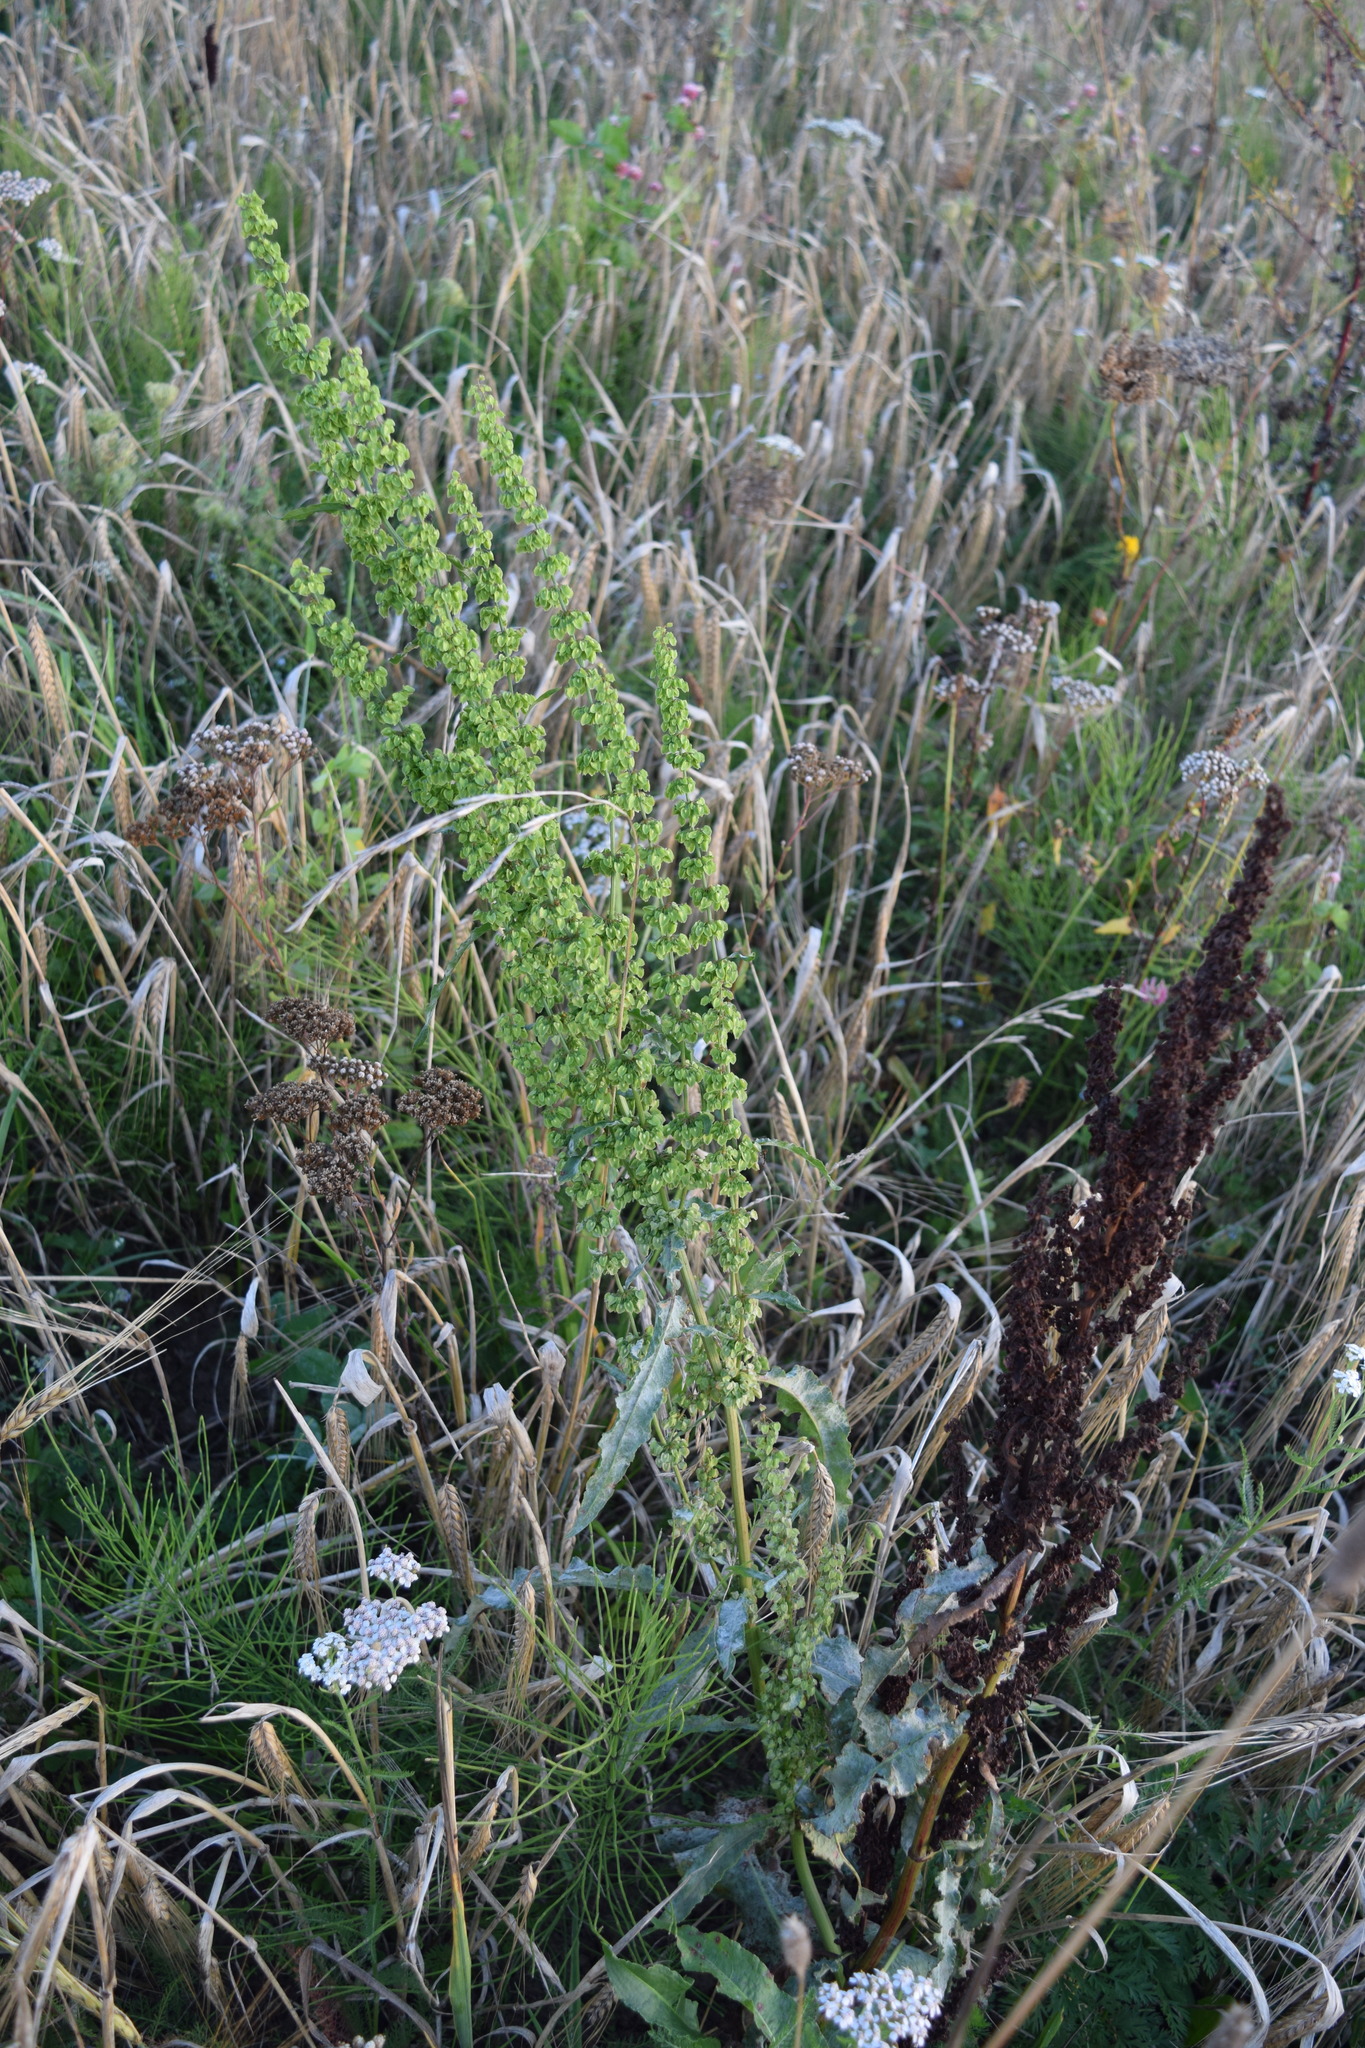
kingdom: Plantae
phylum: Tracheophyta
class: Magnoliopsida
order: Caryophyllales
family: Polygonaceae
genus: Rumex
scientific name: Rumex crispus
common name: Curled dock
